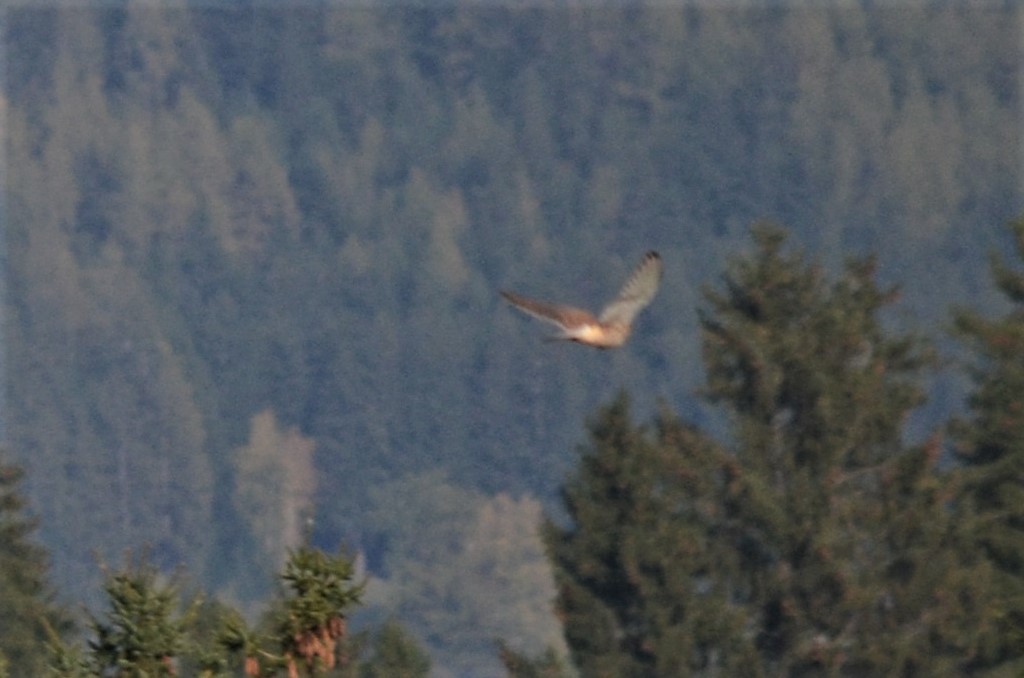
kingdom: Animalia
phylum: Chordata
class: Aves
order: Falconiformes
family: Falconidae
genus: Falco
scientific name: Falco tinnunculus
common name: Common kestrel
